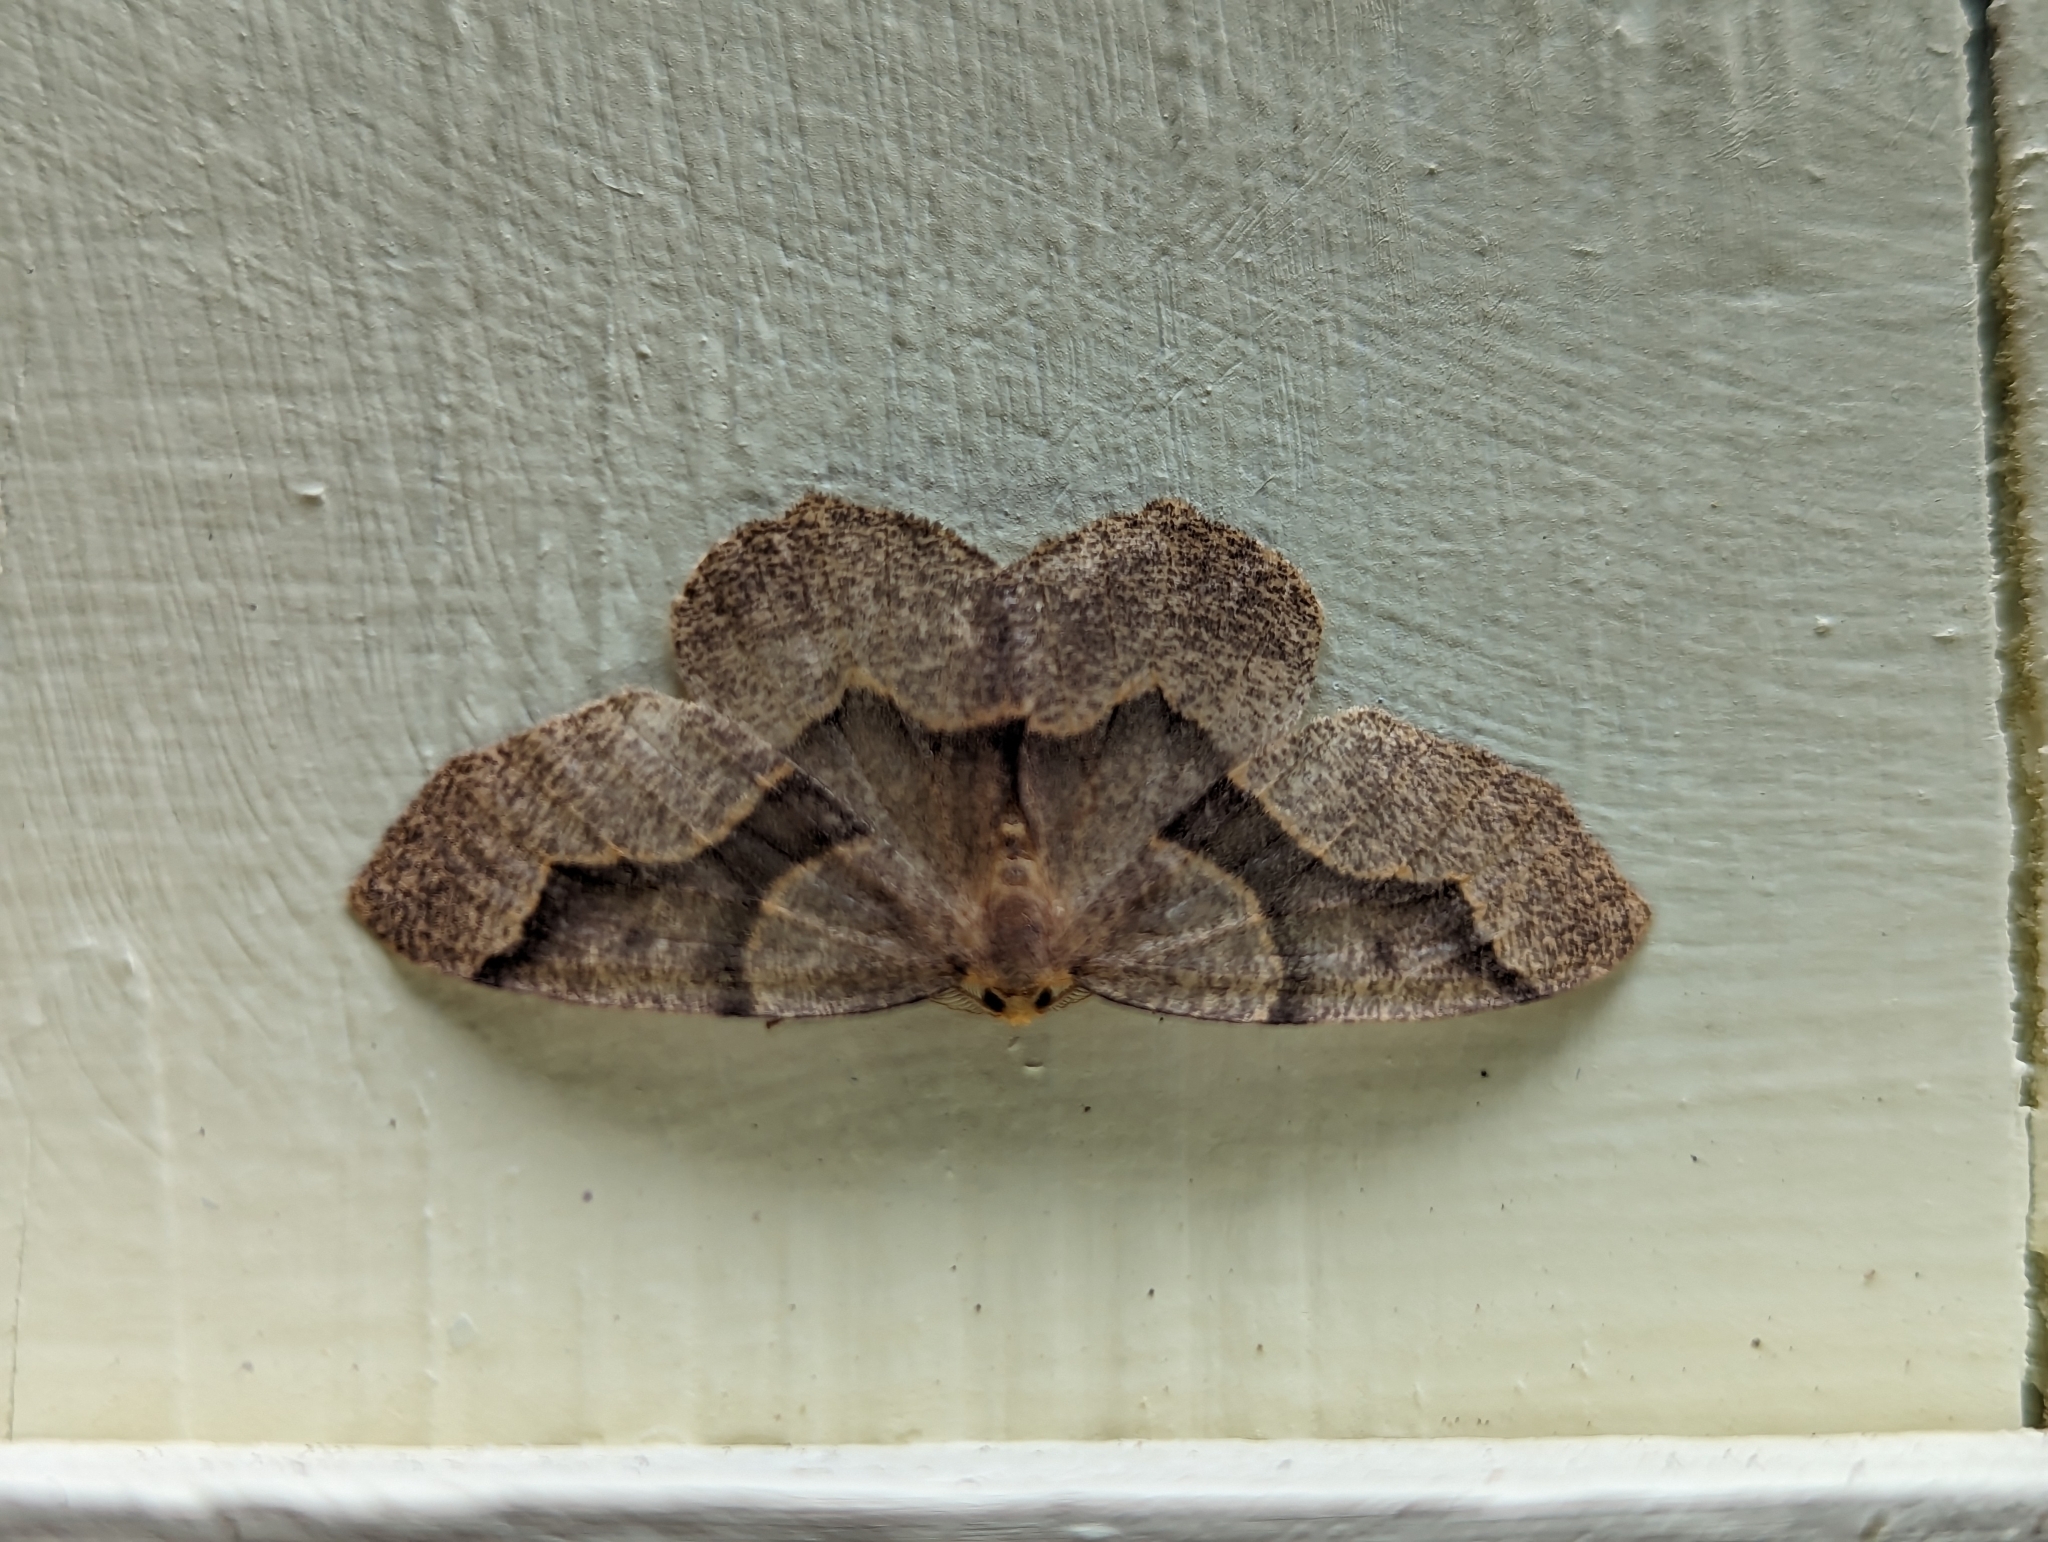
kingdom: Animalia
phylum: Arthropoda
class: Insecta
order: Lepidoptera
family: Geometridae
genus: Lambdina
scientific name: Lambdina fiscellaria
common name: Hemlock looper
